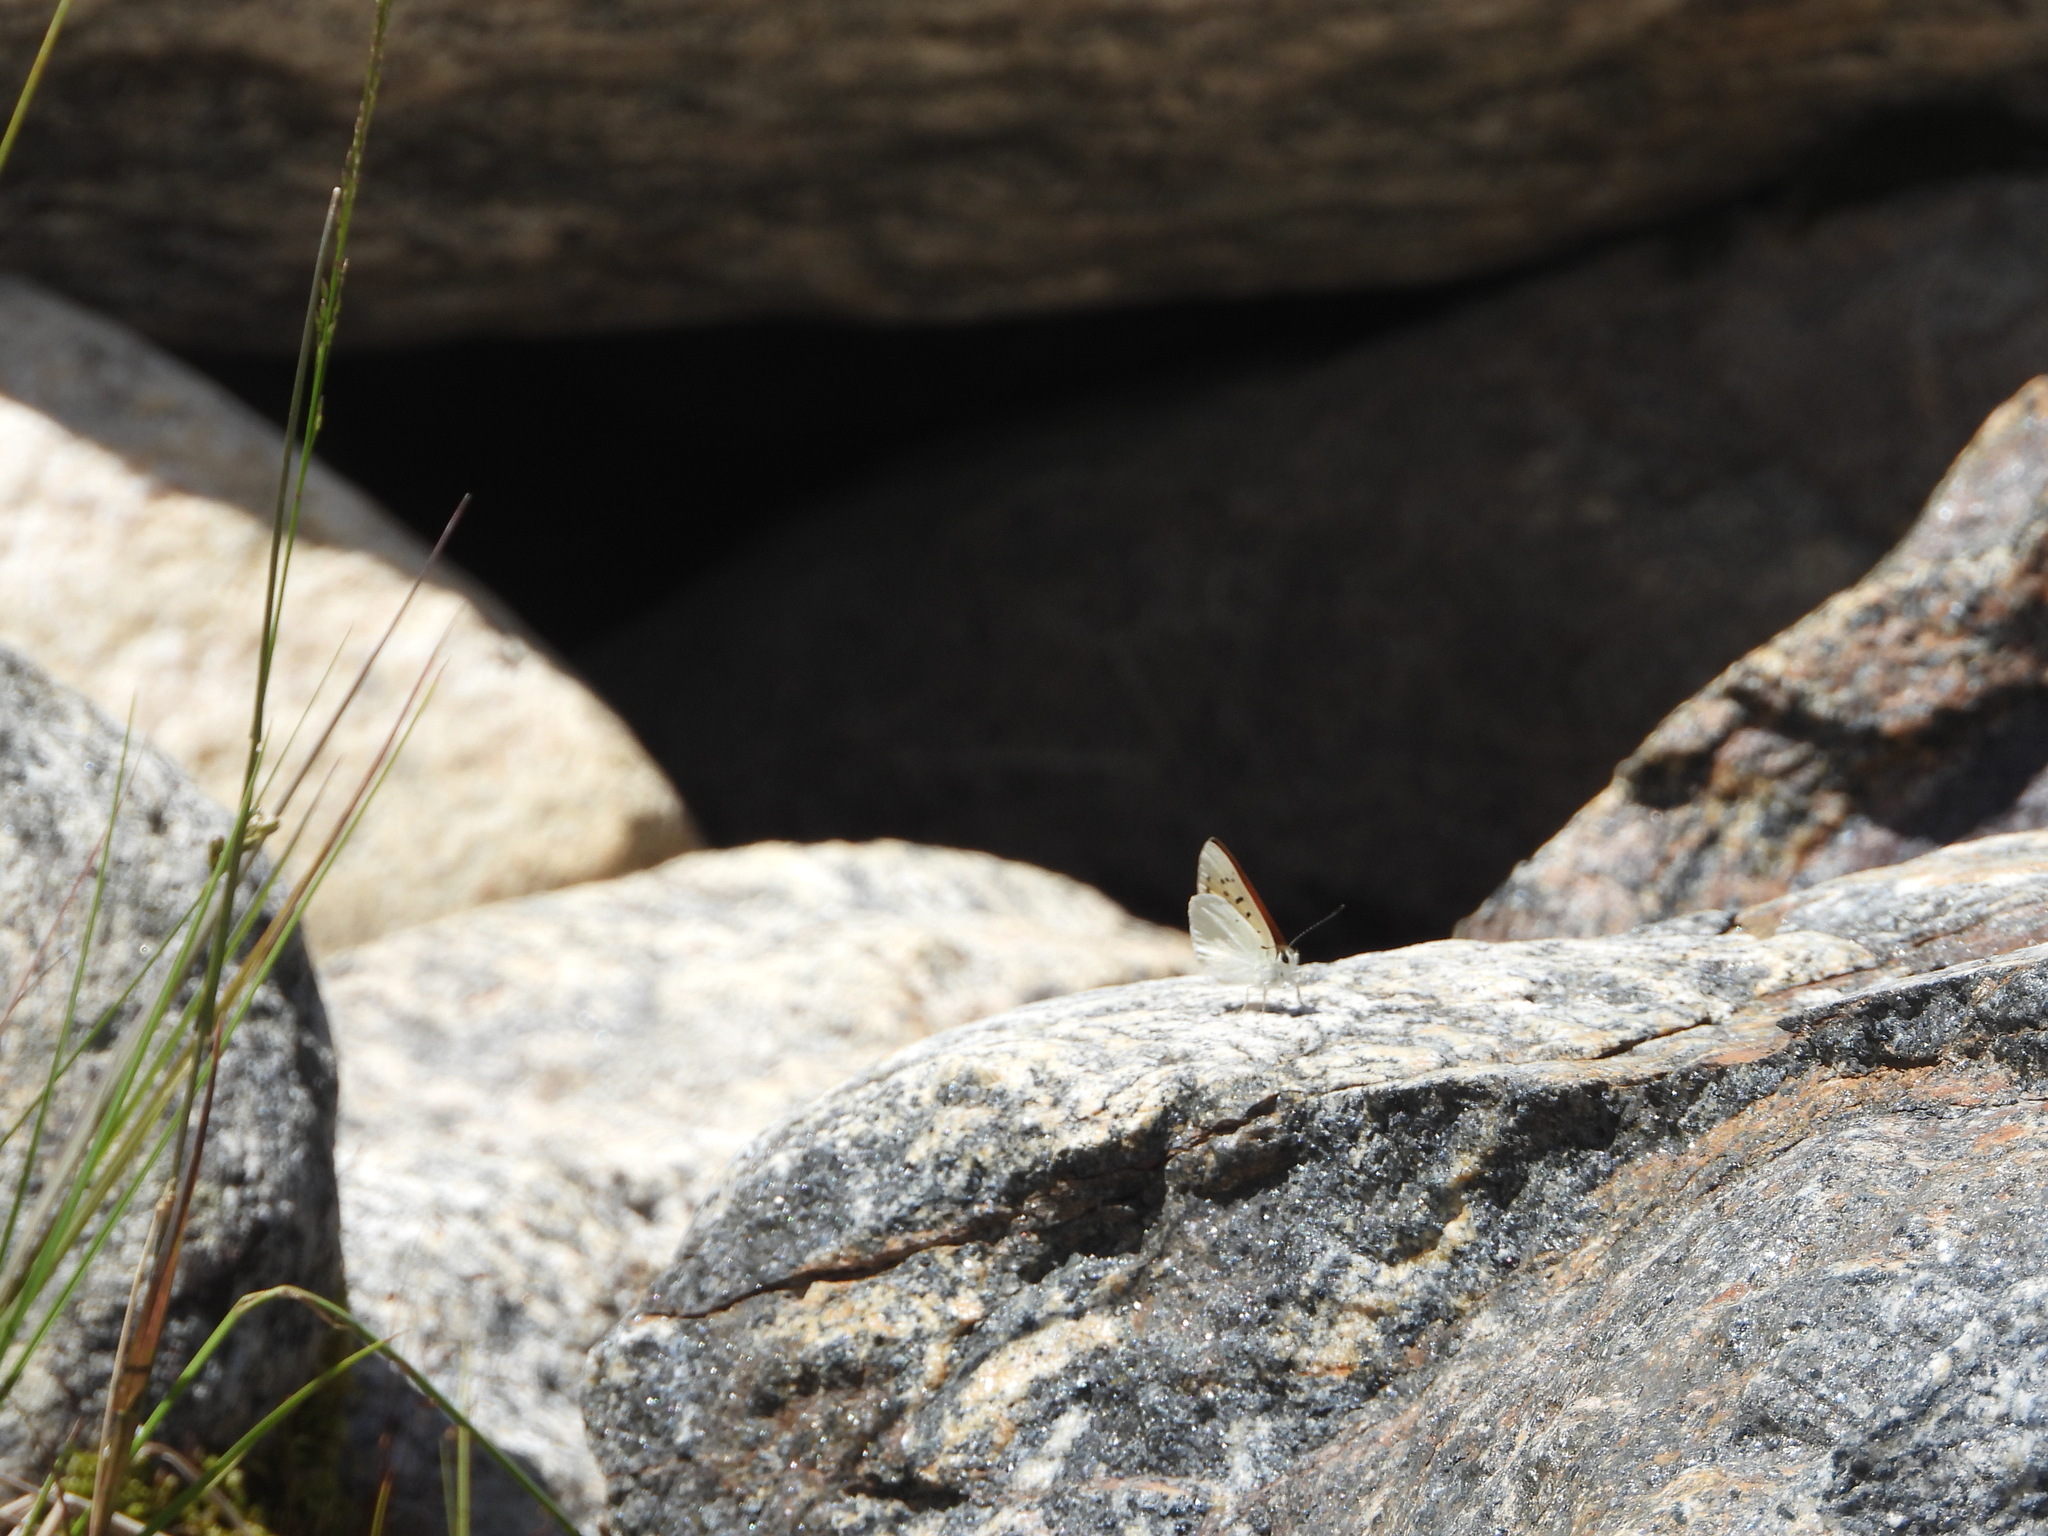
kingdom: Animalia
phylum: Arthropoda
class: Insecta
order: Lepidoptera
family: Lycaenidae
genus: Tharsalea
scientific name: Tharsalea rubidus
